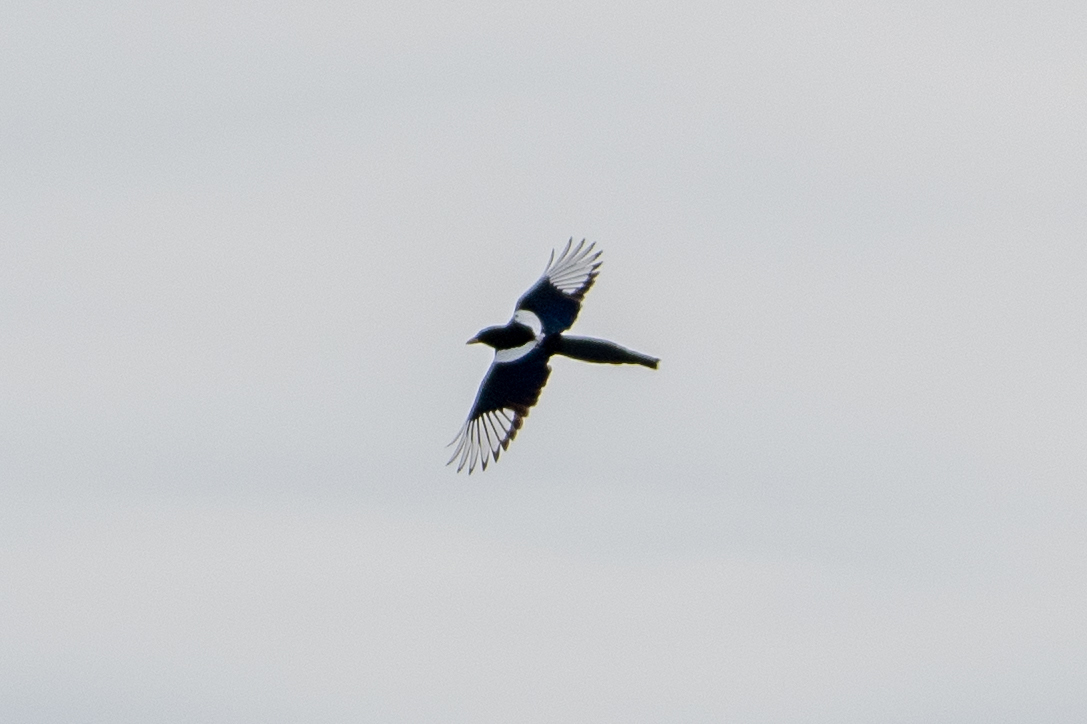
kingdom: Animalia
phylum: Chordata
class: Aves
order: Passeriformes
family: Corvidae
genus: Pica
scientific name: Pica nuttalli
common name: Yellow-billed magpie
